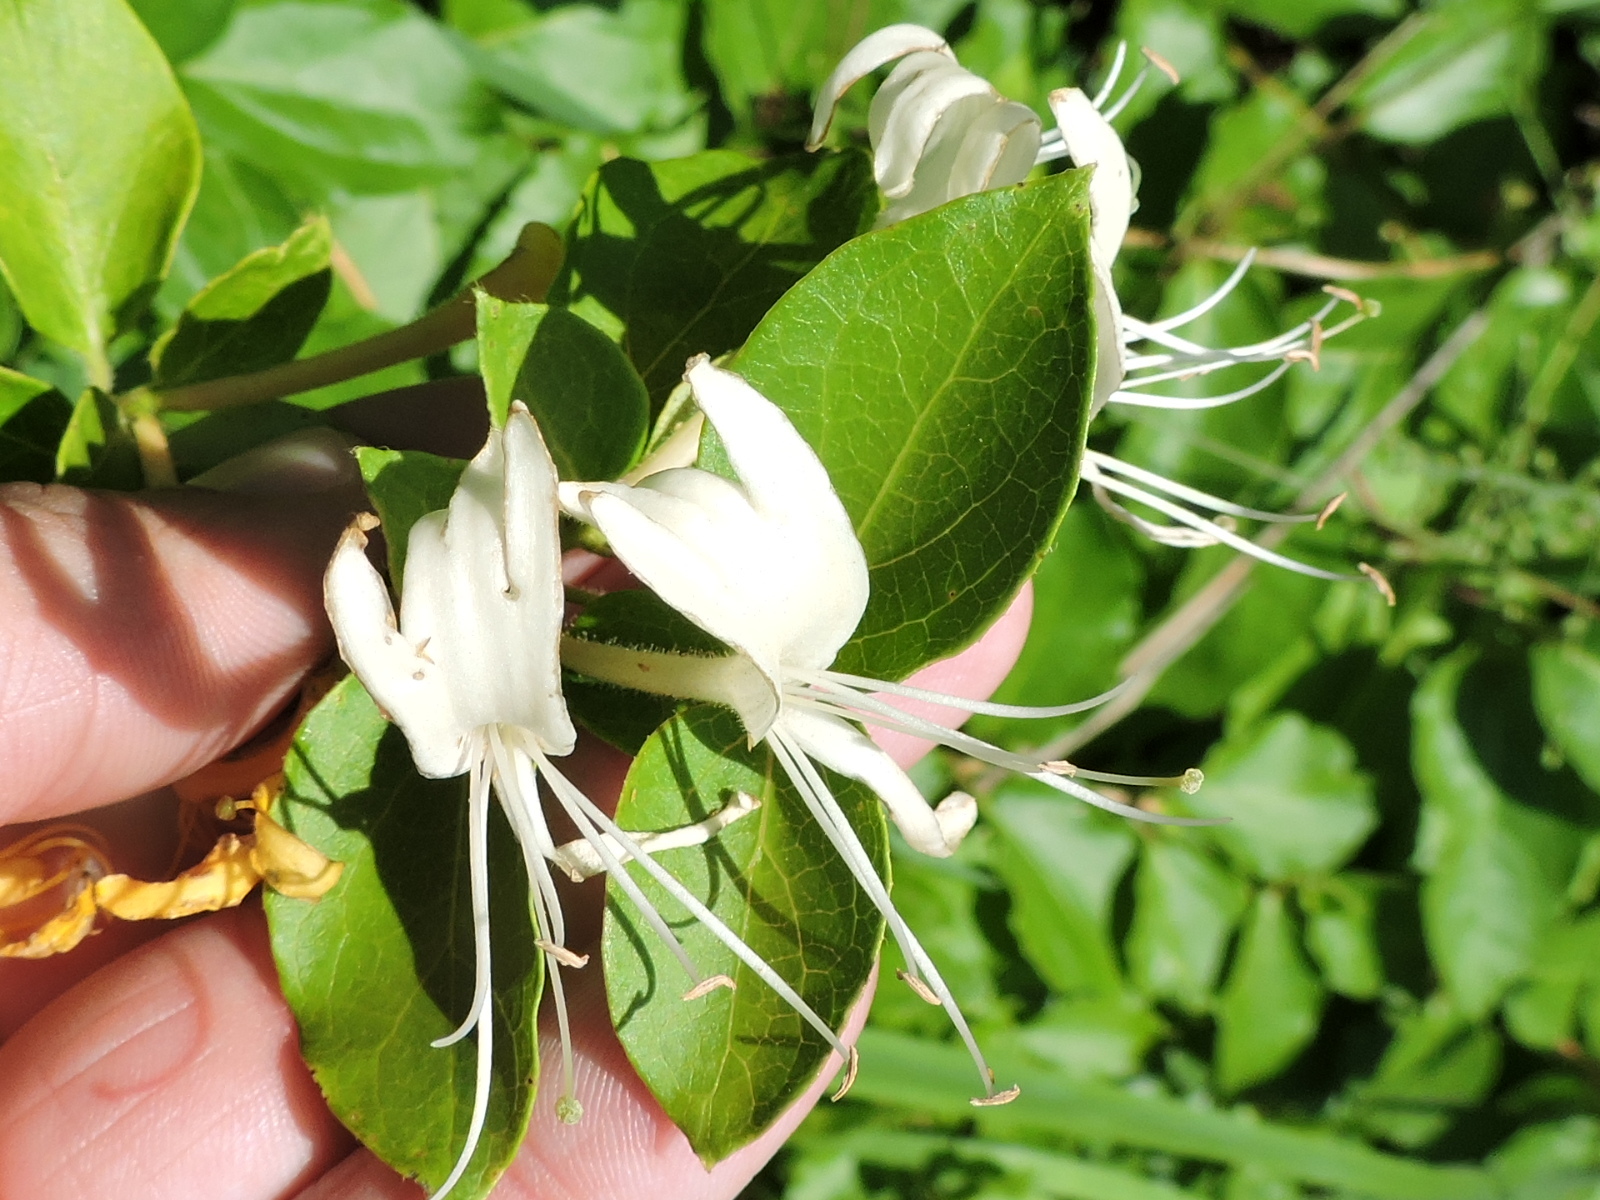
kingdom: Plantae
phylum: Tracheophyta
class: Magnoliopsida
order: Dipsacales
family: Caprifoliaceae
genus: Lonicera
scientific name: Lonicera japonica
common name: Japanese honeysuckle
